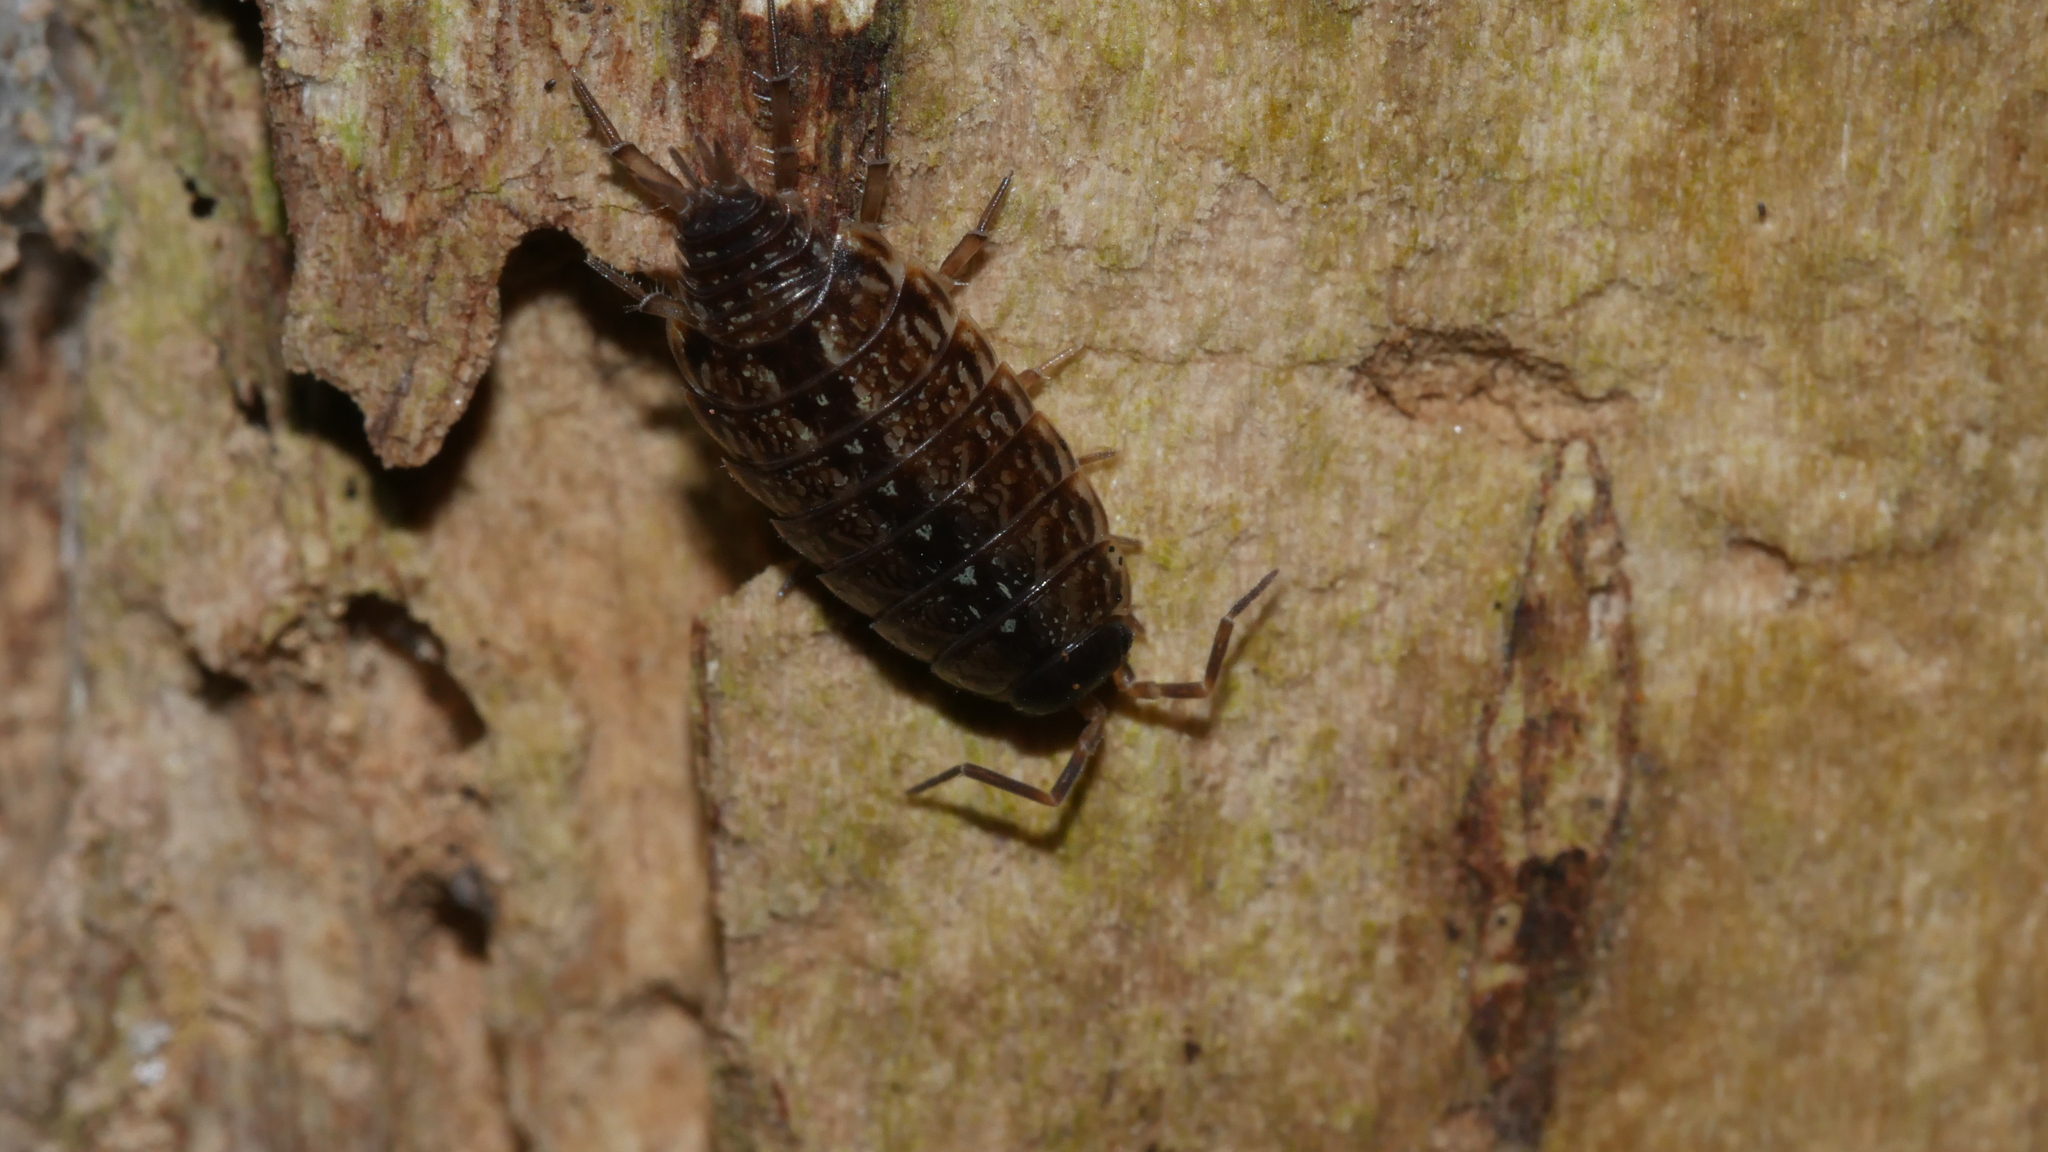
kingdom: Animalia
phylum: Arthropoda
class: Malacostraca
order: Isopoda
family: Philosciidae
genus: Philoscia
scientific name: Philoscia muscorum
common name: Common striped woodlouse
